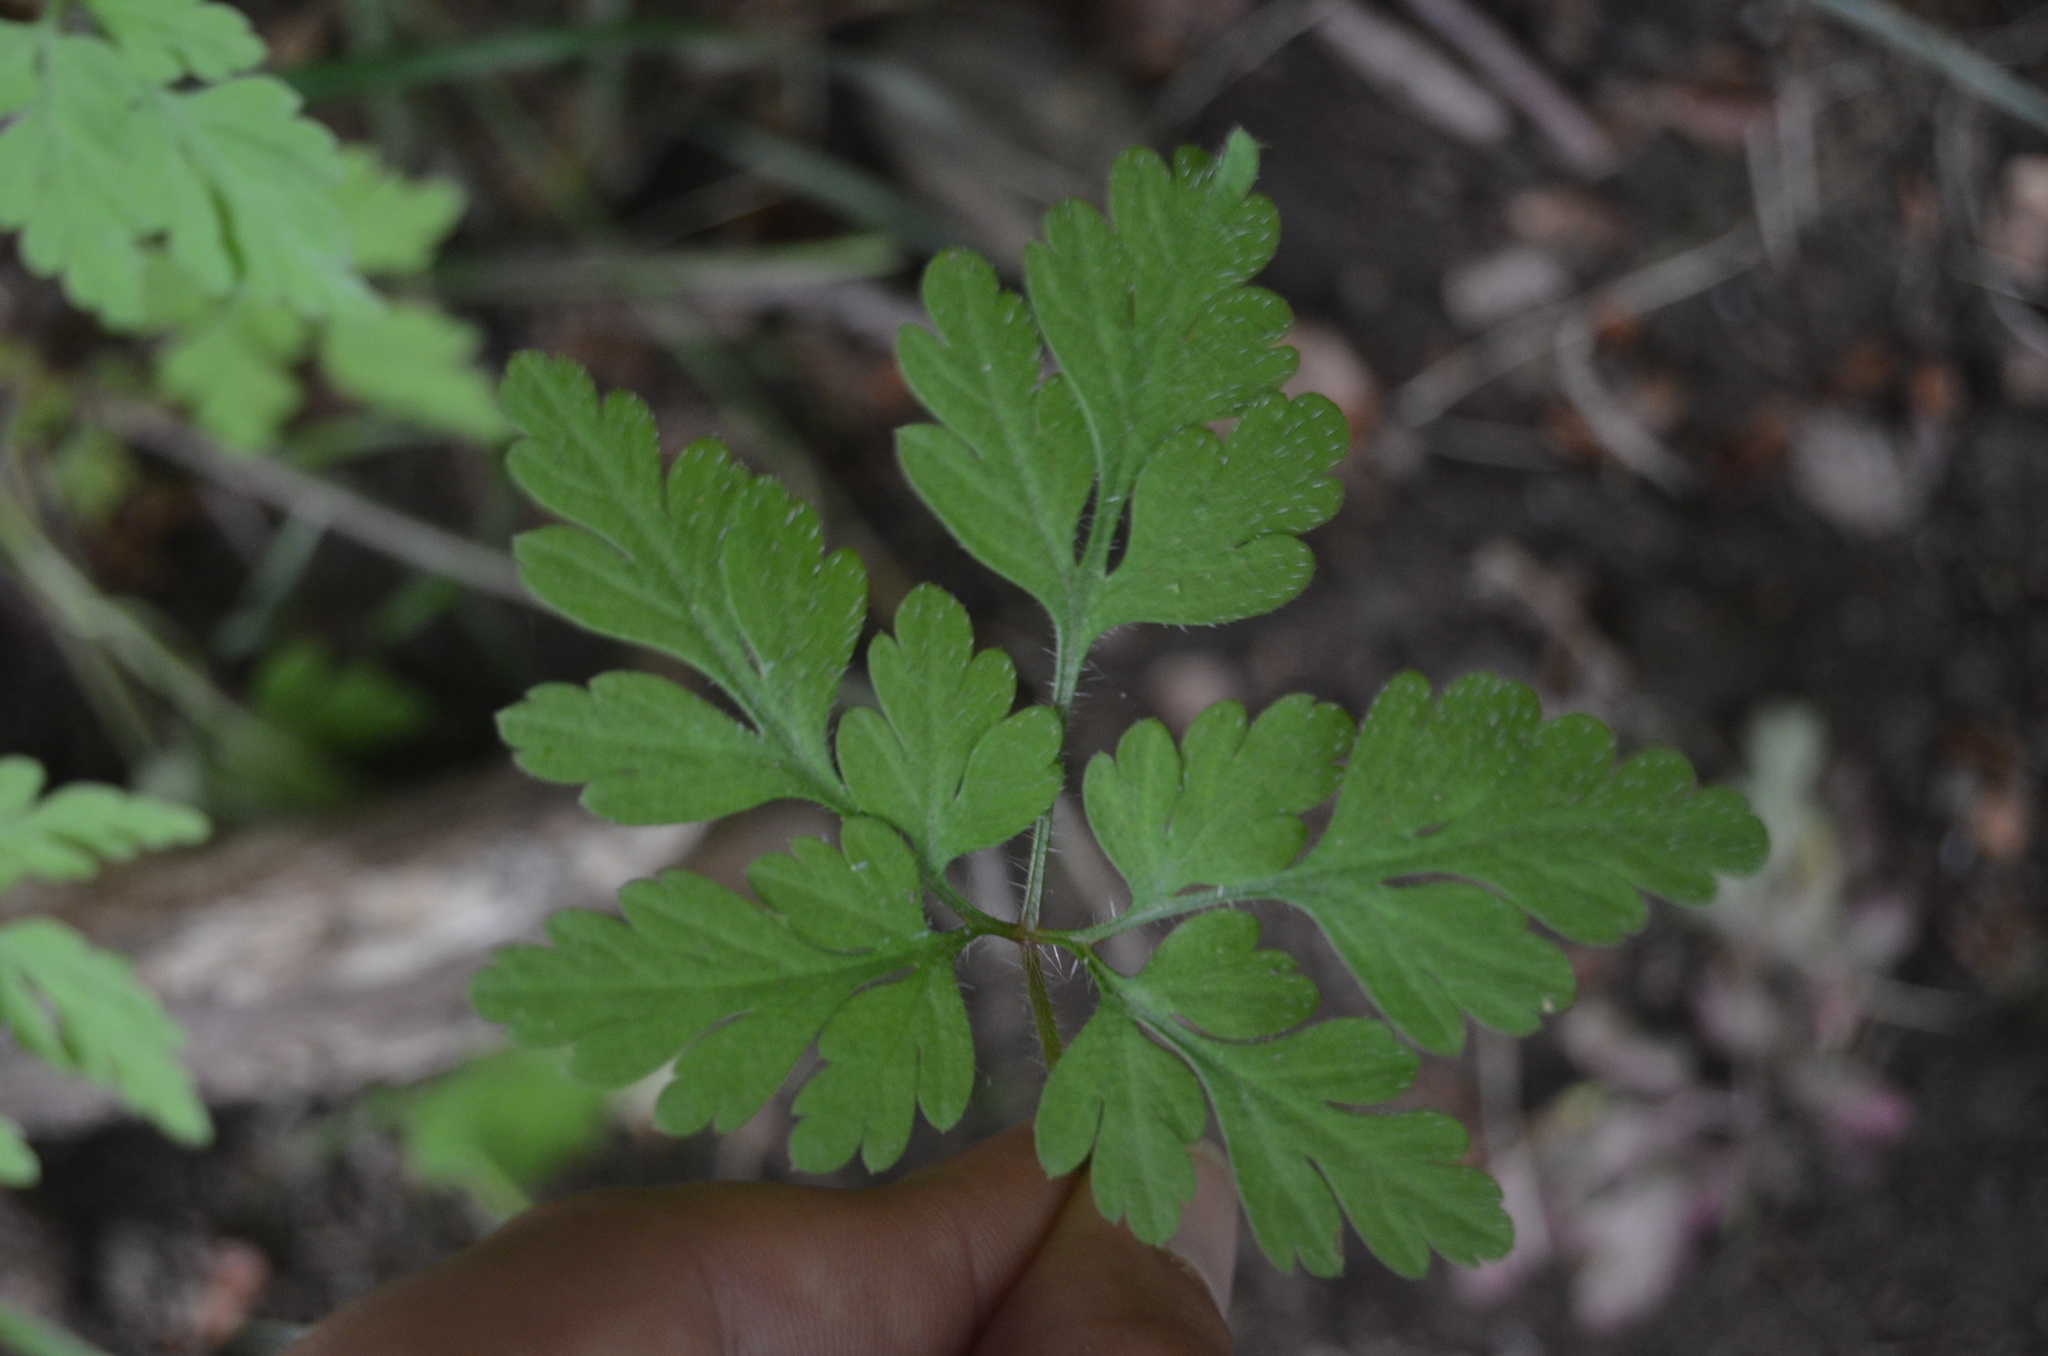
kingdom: Plantae
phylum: Tracheophyta
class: Magnoliopsida
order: Geraniales
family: Geraniaceae
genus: Geranium
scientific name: Geranium robertianum
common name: Herb-robert
